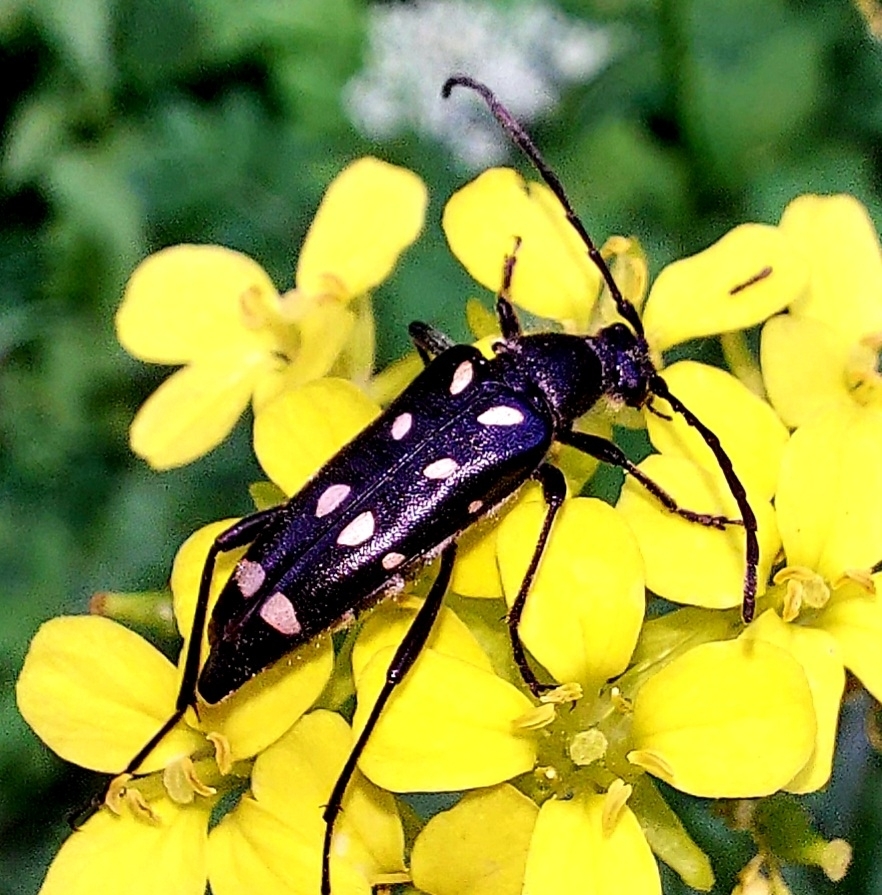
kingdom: Animalia
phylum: Arthropoda
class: Insecta
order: Coleoptera
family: Cerambycidae
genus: Leptura
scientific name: Leptura
